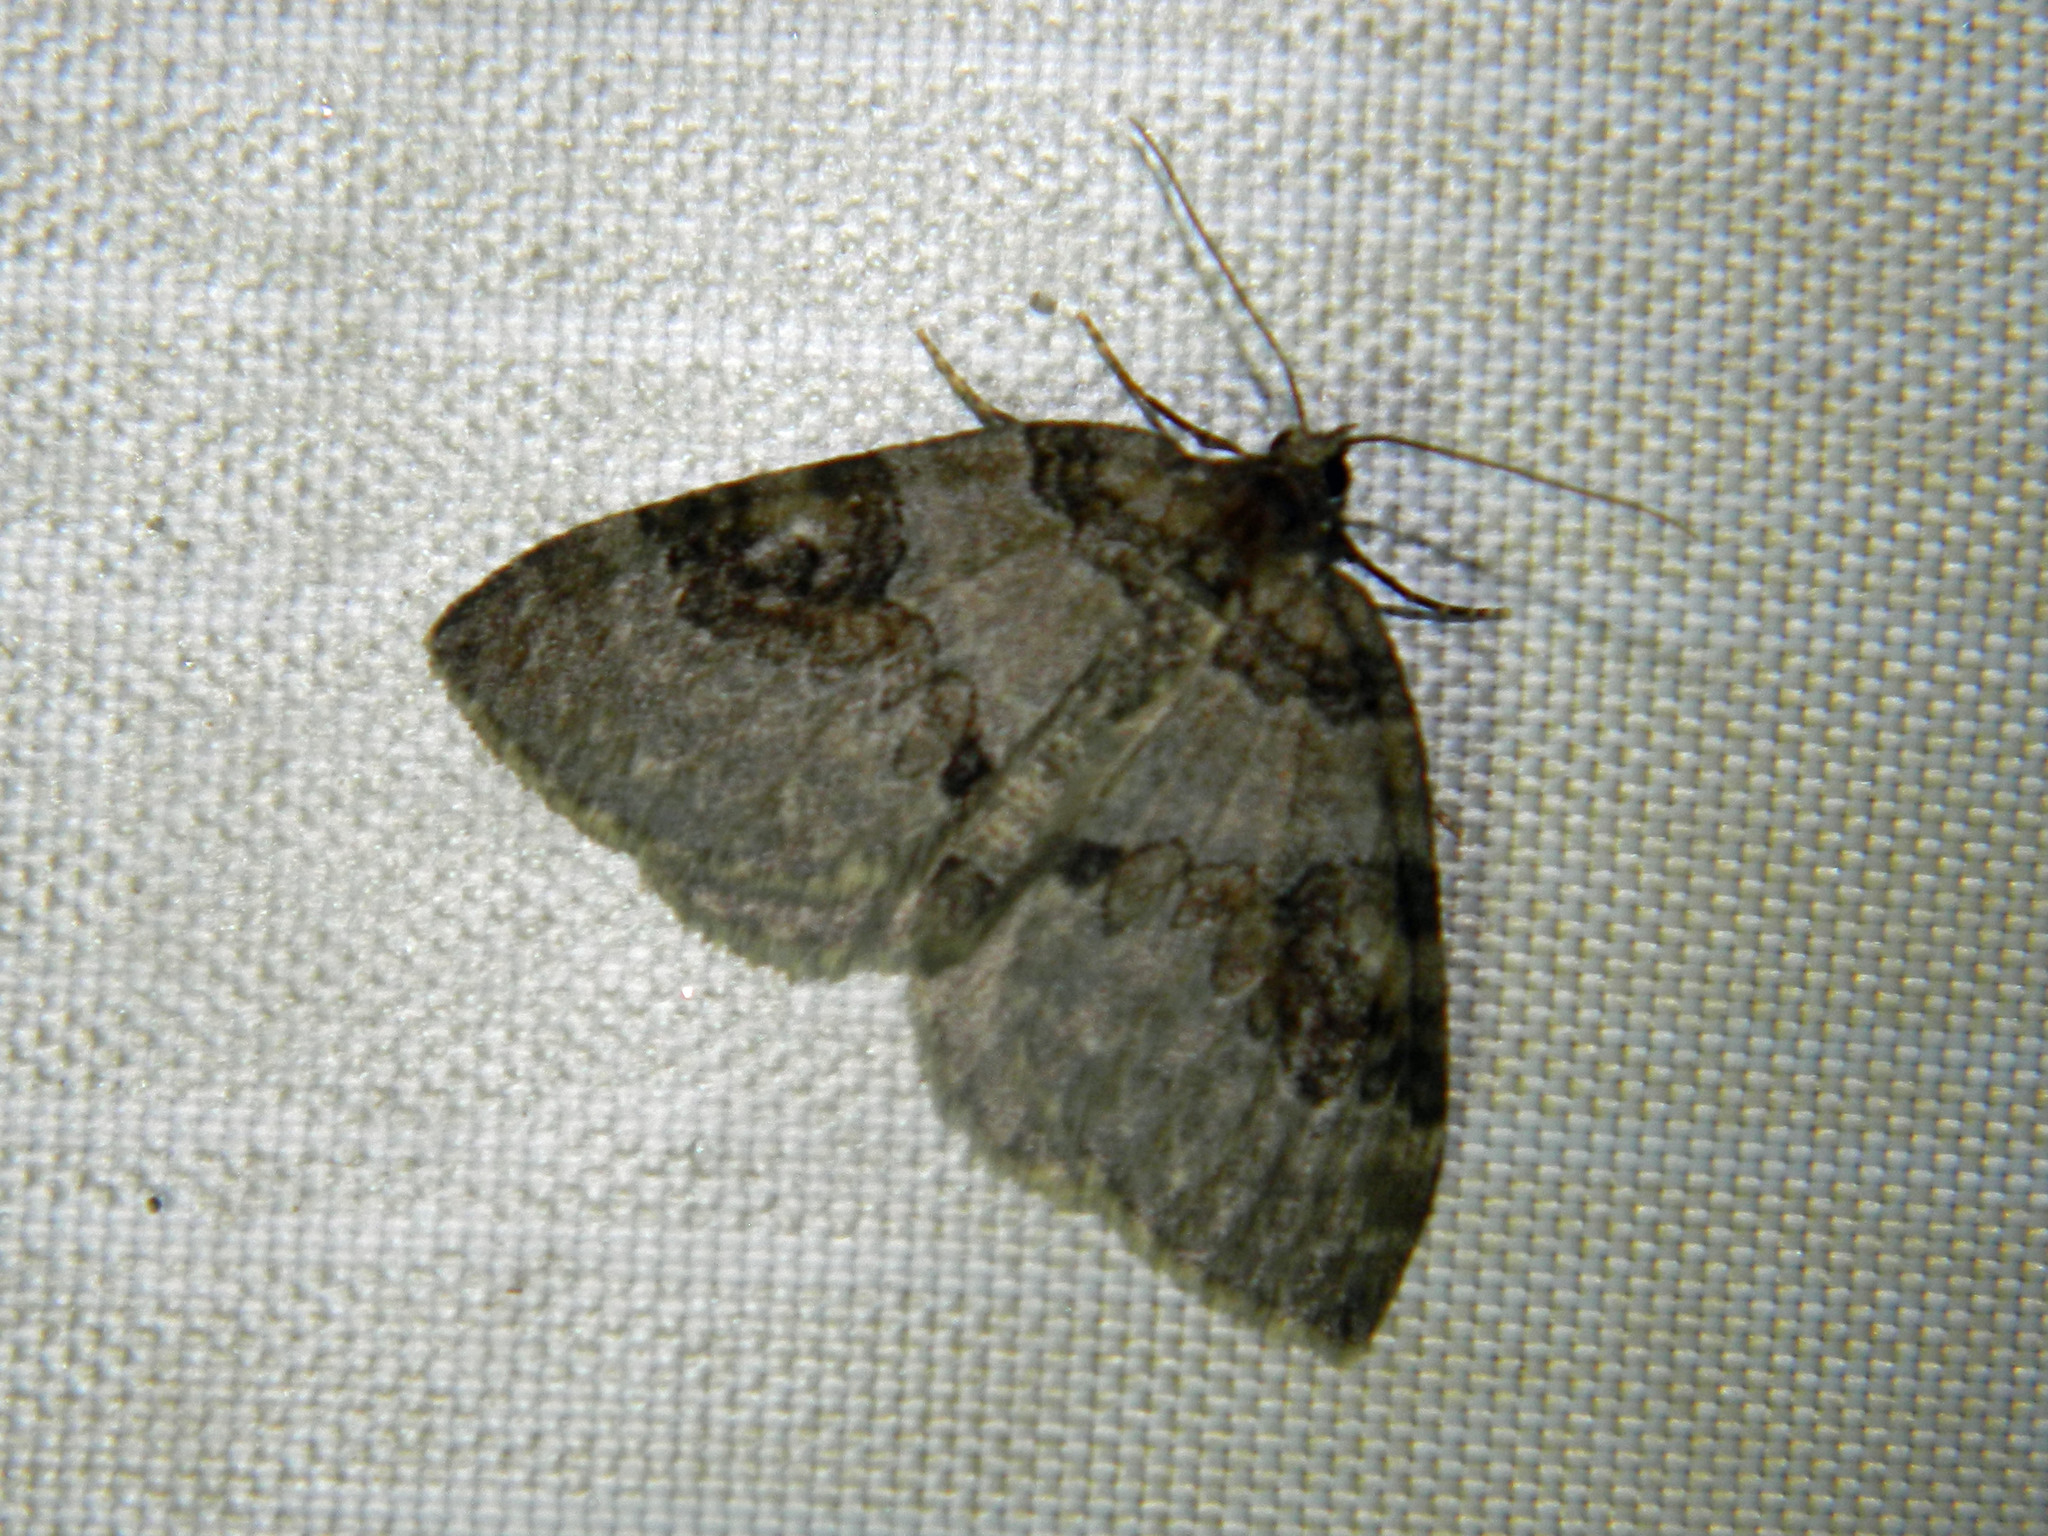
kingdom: Animalia
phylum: Arthropoda
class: Insecta
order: Lepidoptera
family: Geometridae
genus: Plemyria
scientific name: Plemyria georgii
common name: George's carpet moth
